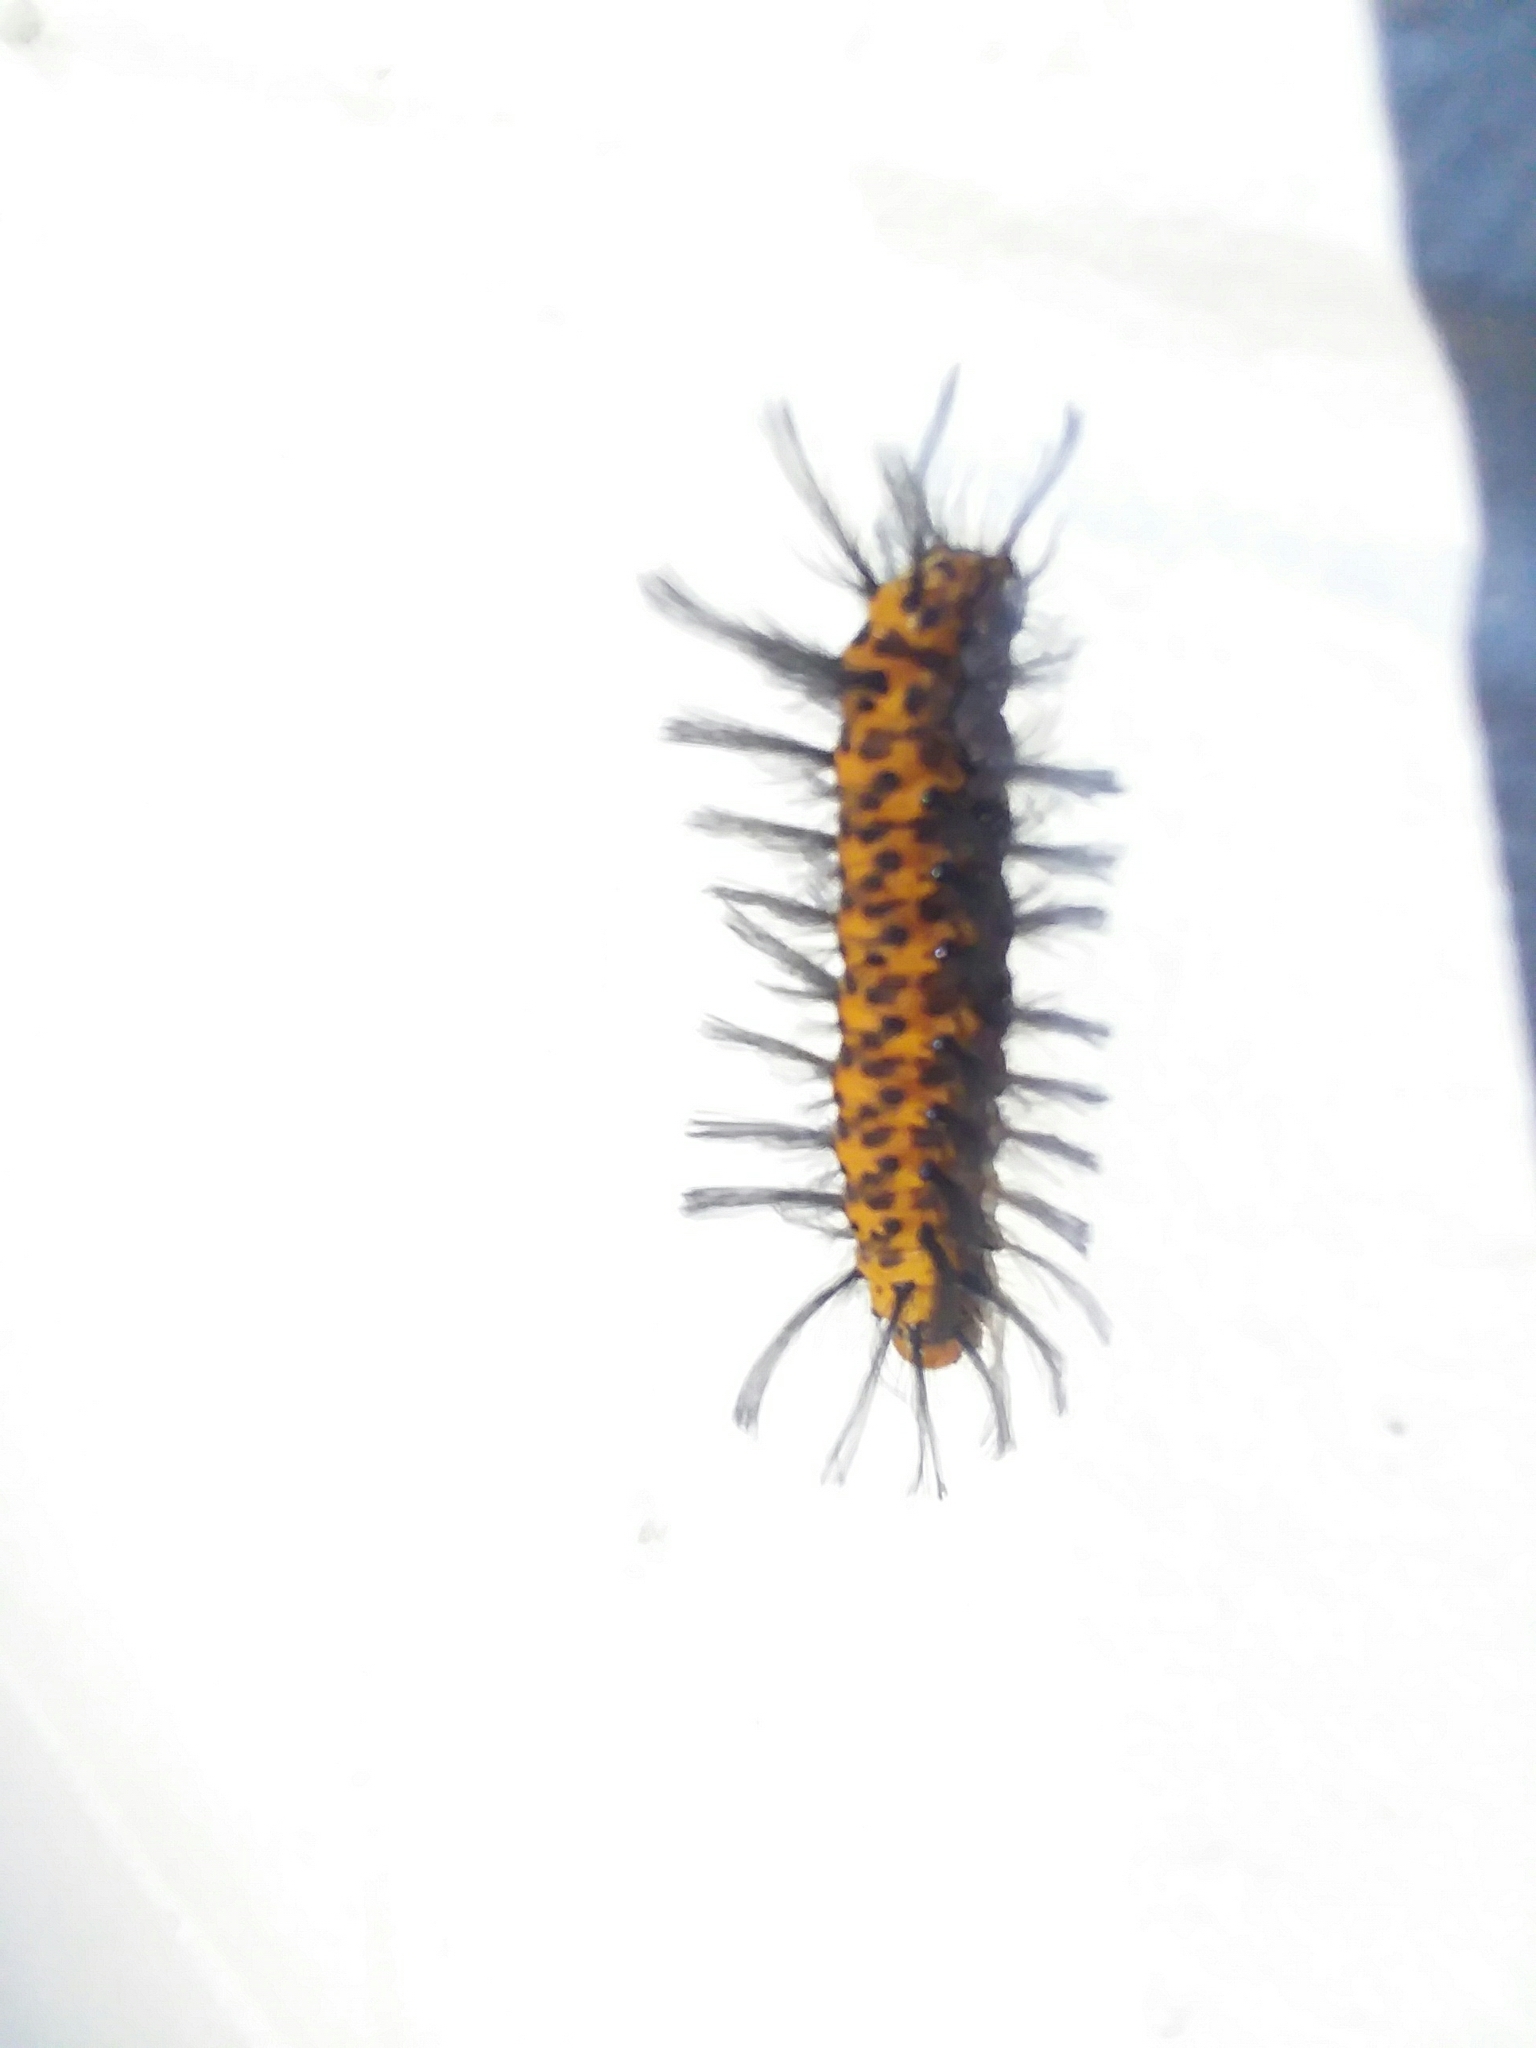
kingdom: Animalia
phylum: Arthropoda
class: Insecta
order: Lepidoptera
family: Erebidae
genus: Syntomeida
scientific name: Syntomeida epilais
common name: Polka-dot wasp moth
